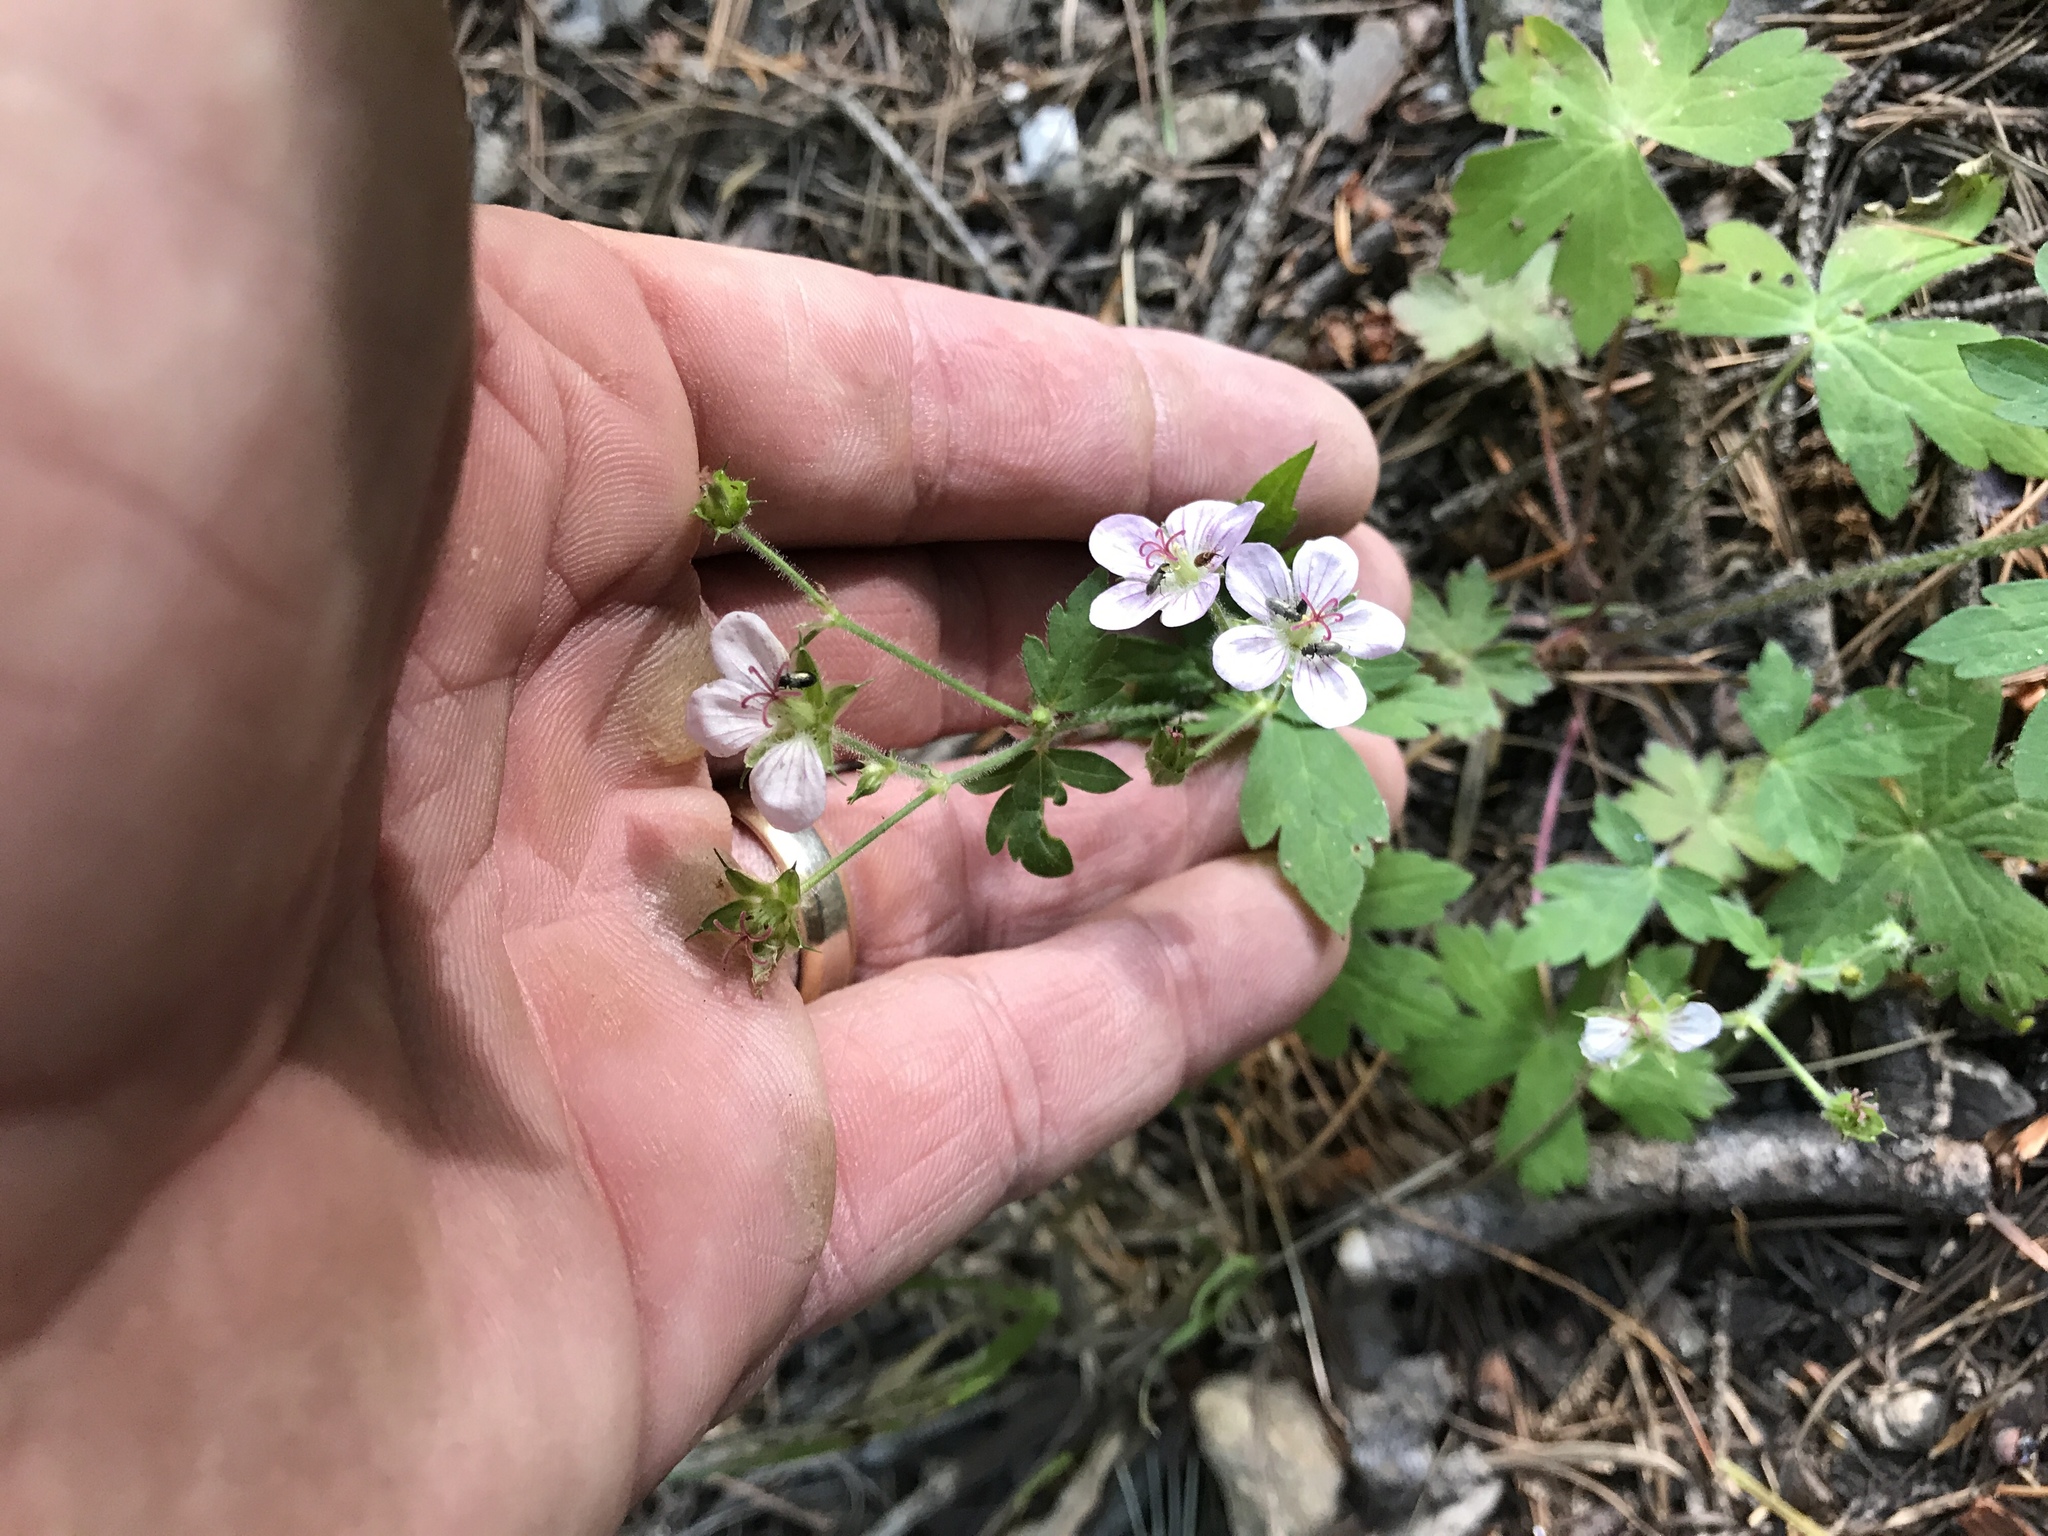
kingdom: Plantae
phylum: Tracheophyta
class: Magnoliopsida
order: Geraniales
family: Geraniaceae
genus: Geranium
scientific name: Geranium richardsonii
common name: Richardson's crane's-bill
